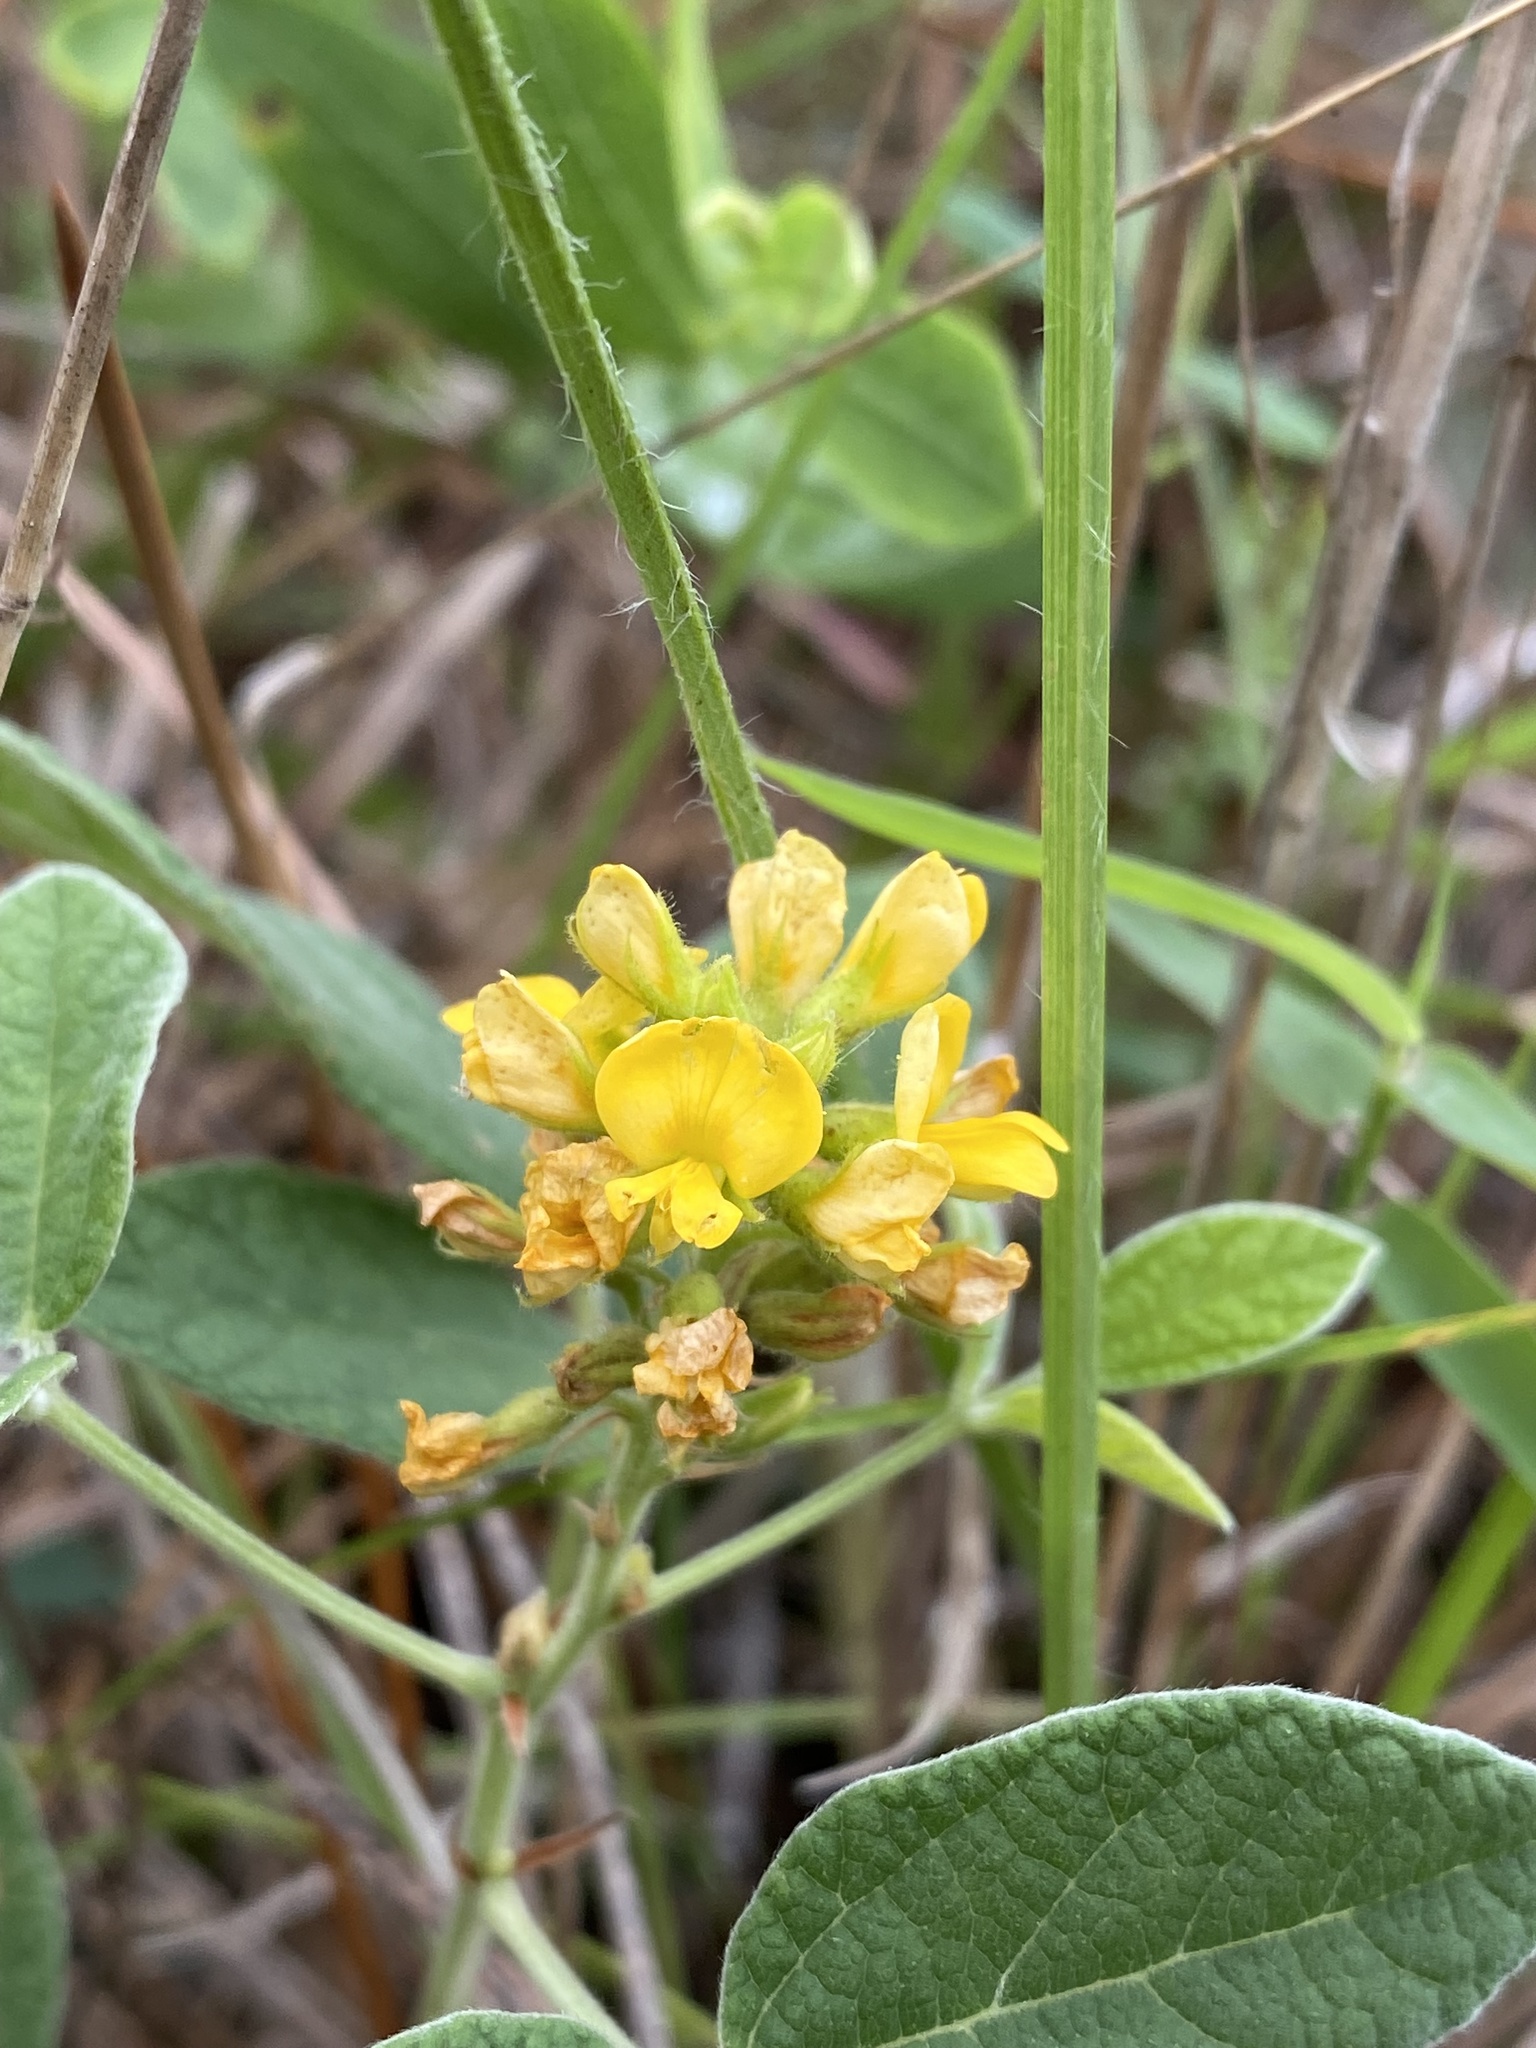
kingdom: Plantae
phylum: Tracheophyta
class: Magnoliopsida
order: Fabales
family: Fabaceae
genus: Rhynchosia
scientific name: Rhynchosia tomentosa
